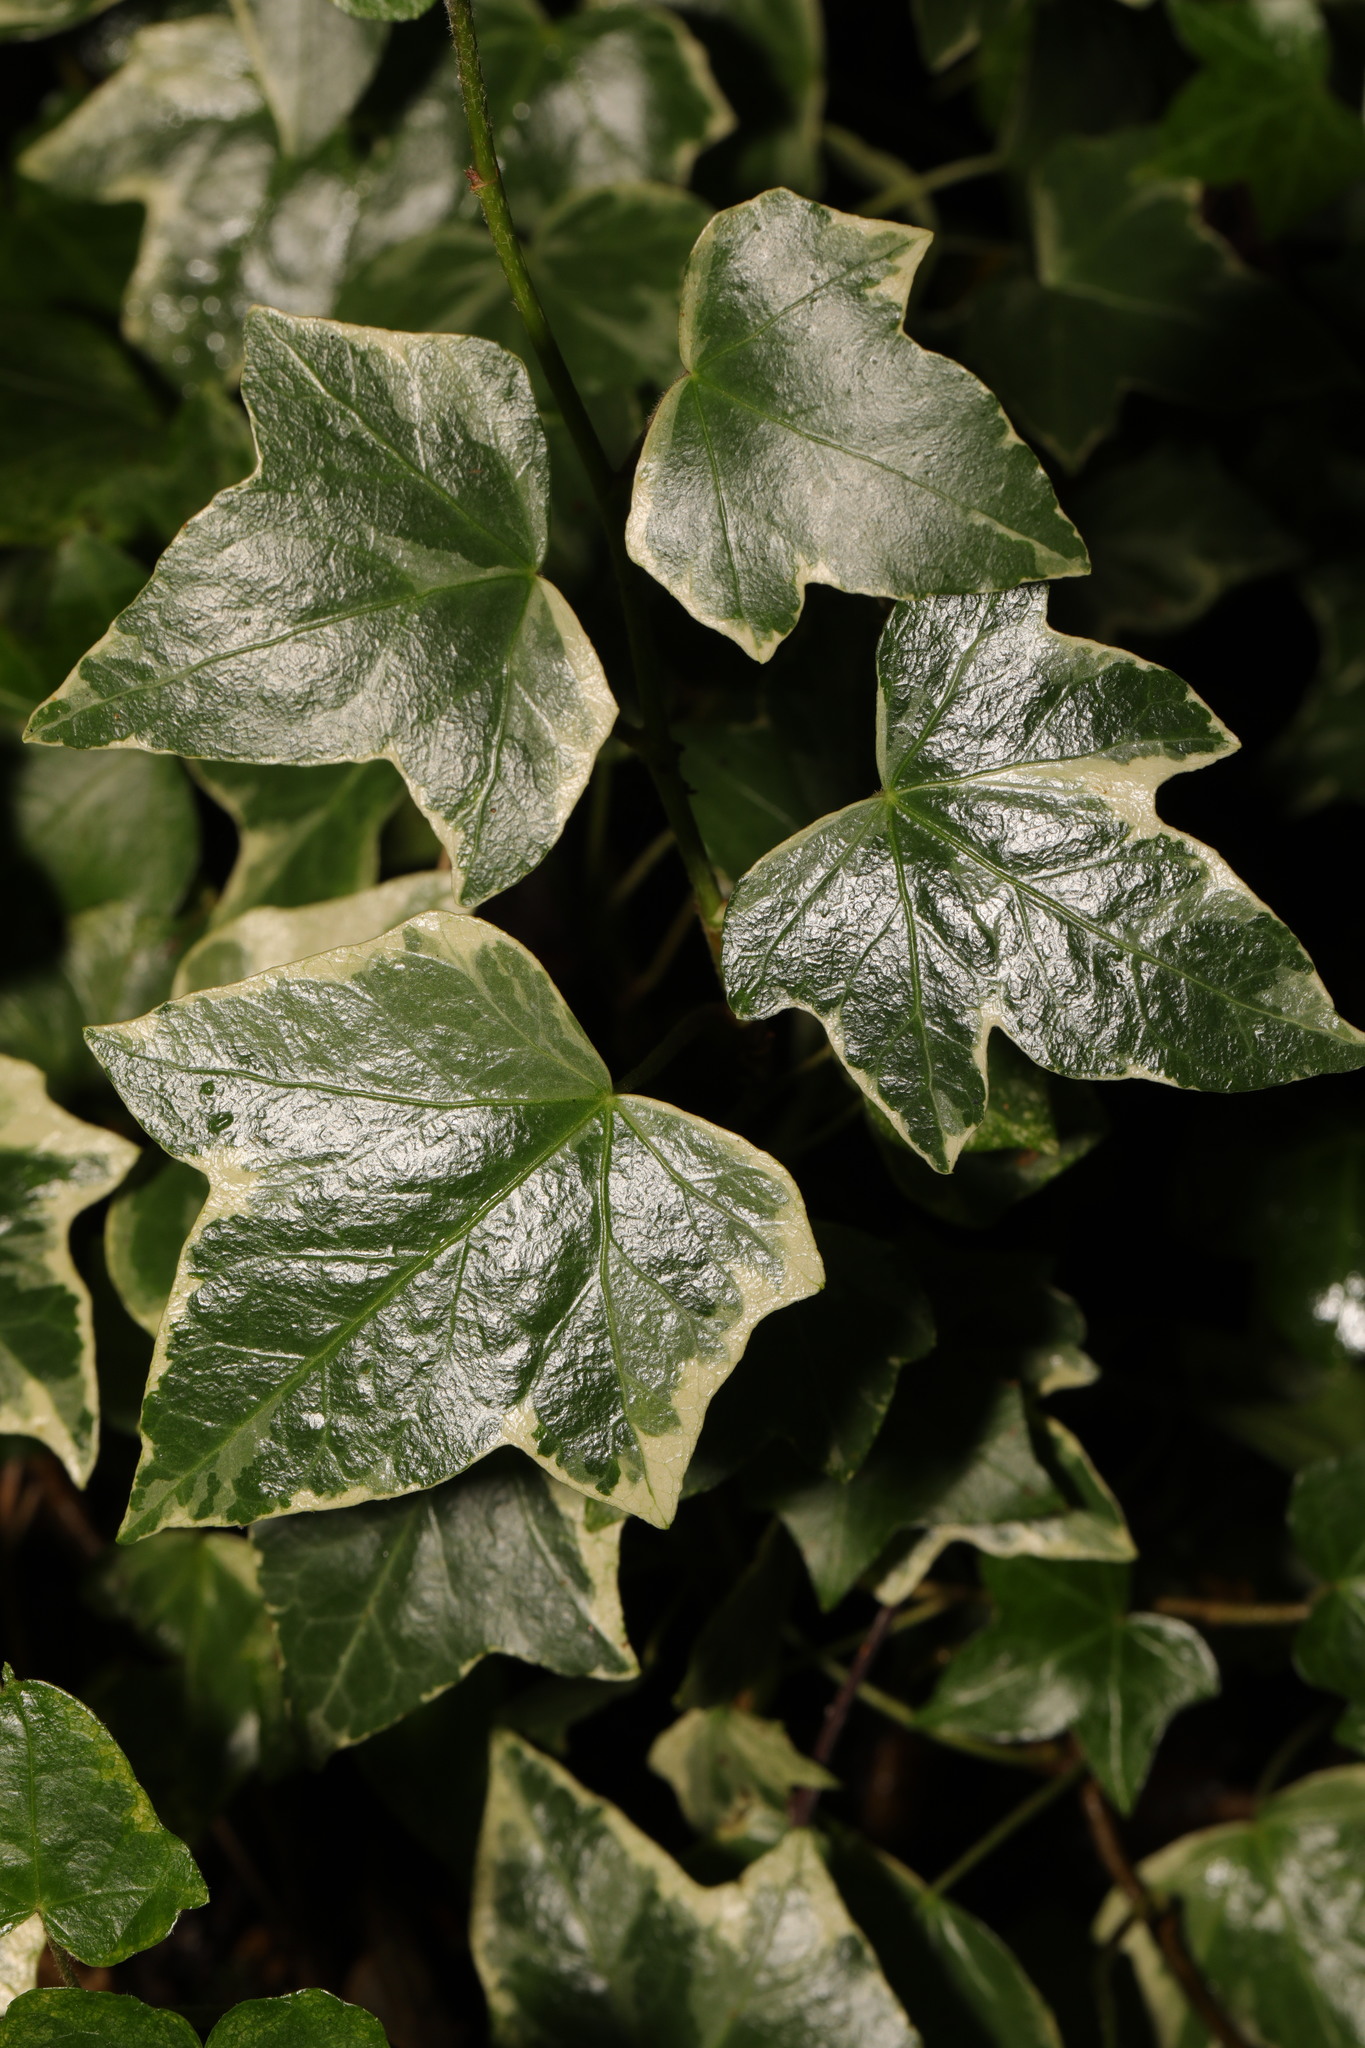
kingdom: Plantae
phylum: Tracheophyta
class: Magnoliopsida
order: Apiales
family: Araliaceae
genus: Hedera
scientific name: Hedera helix
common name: Ivy
